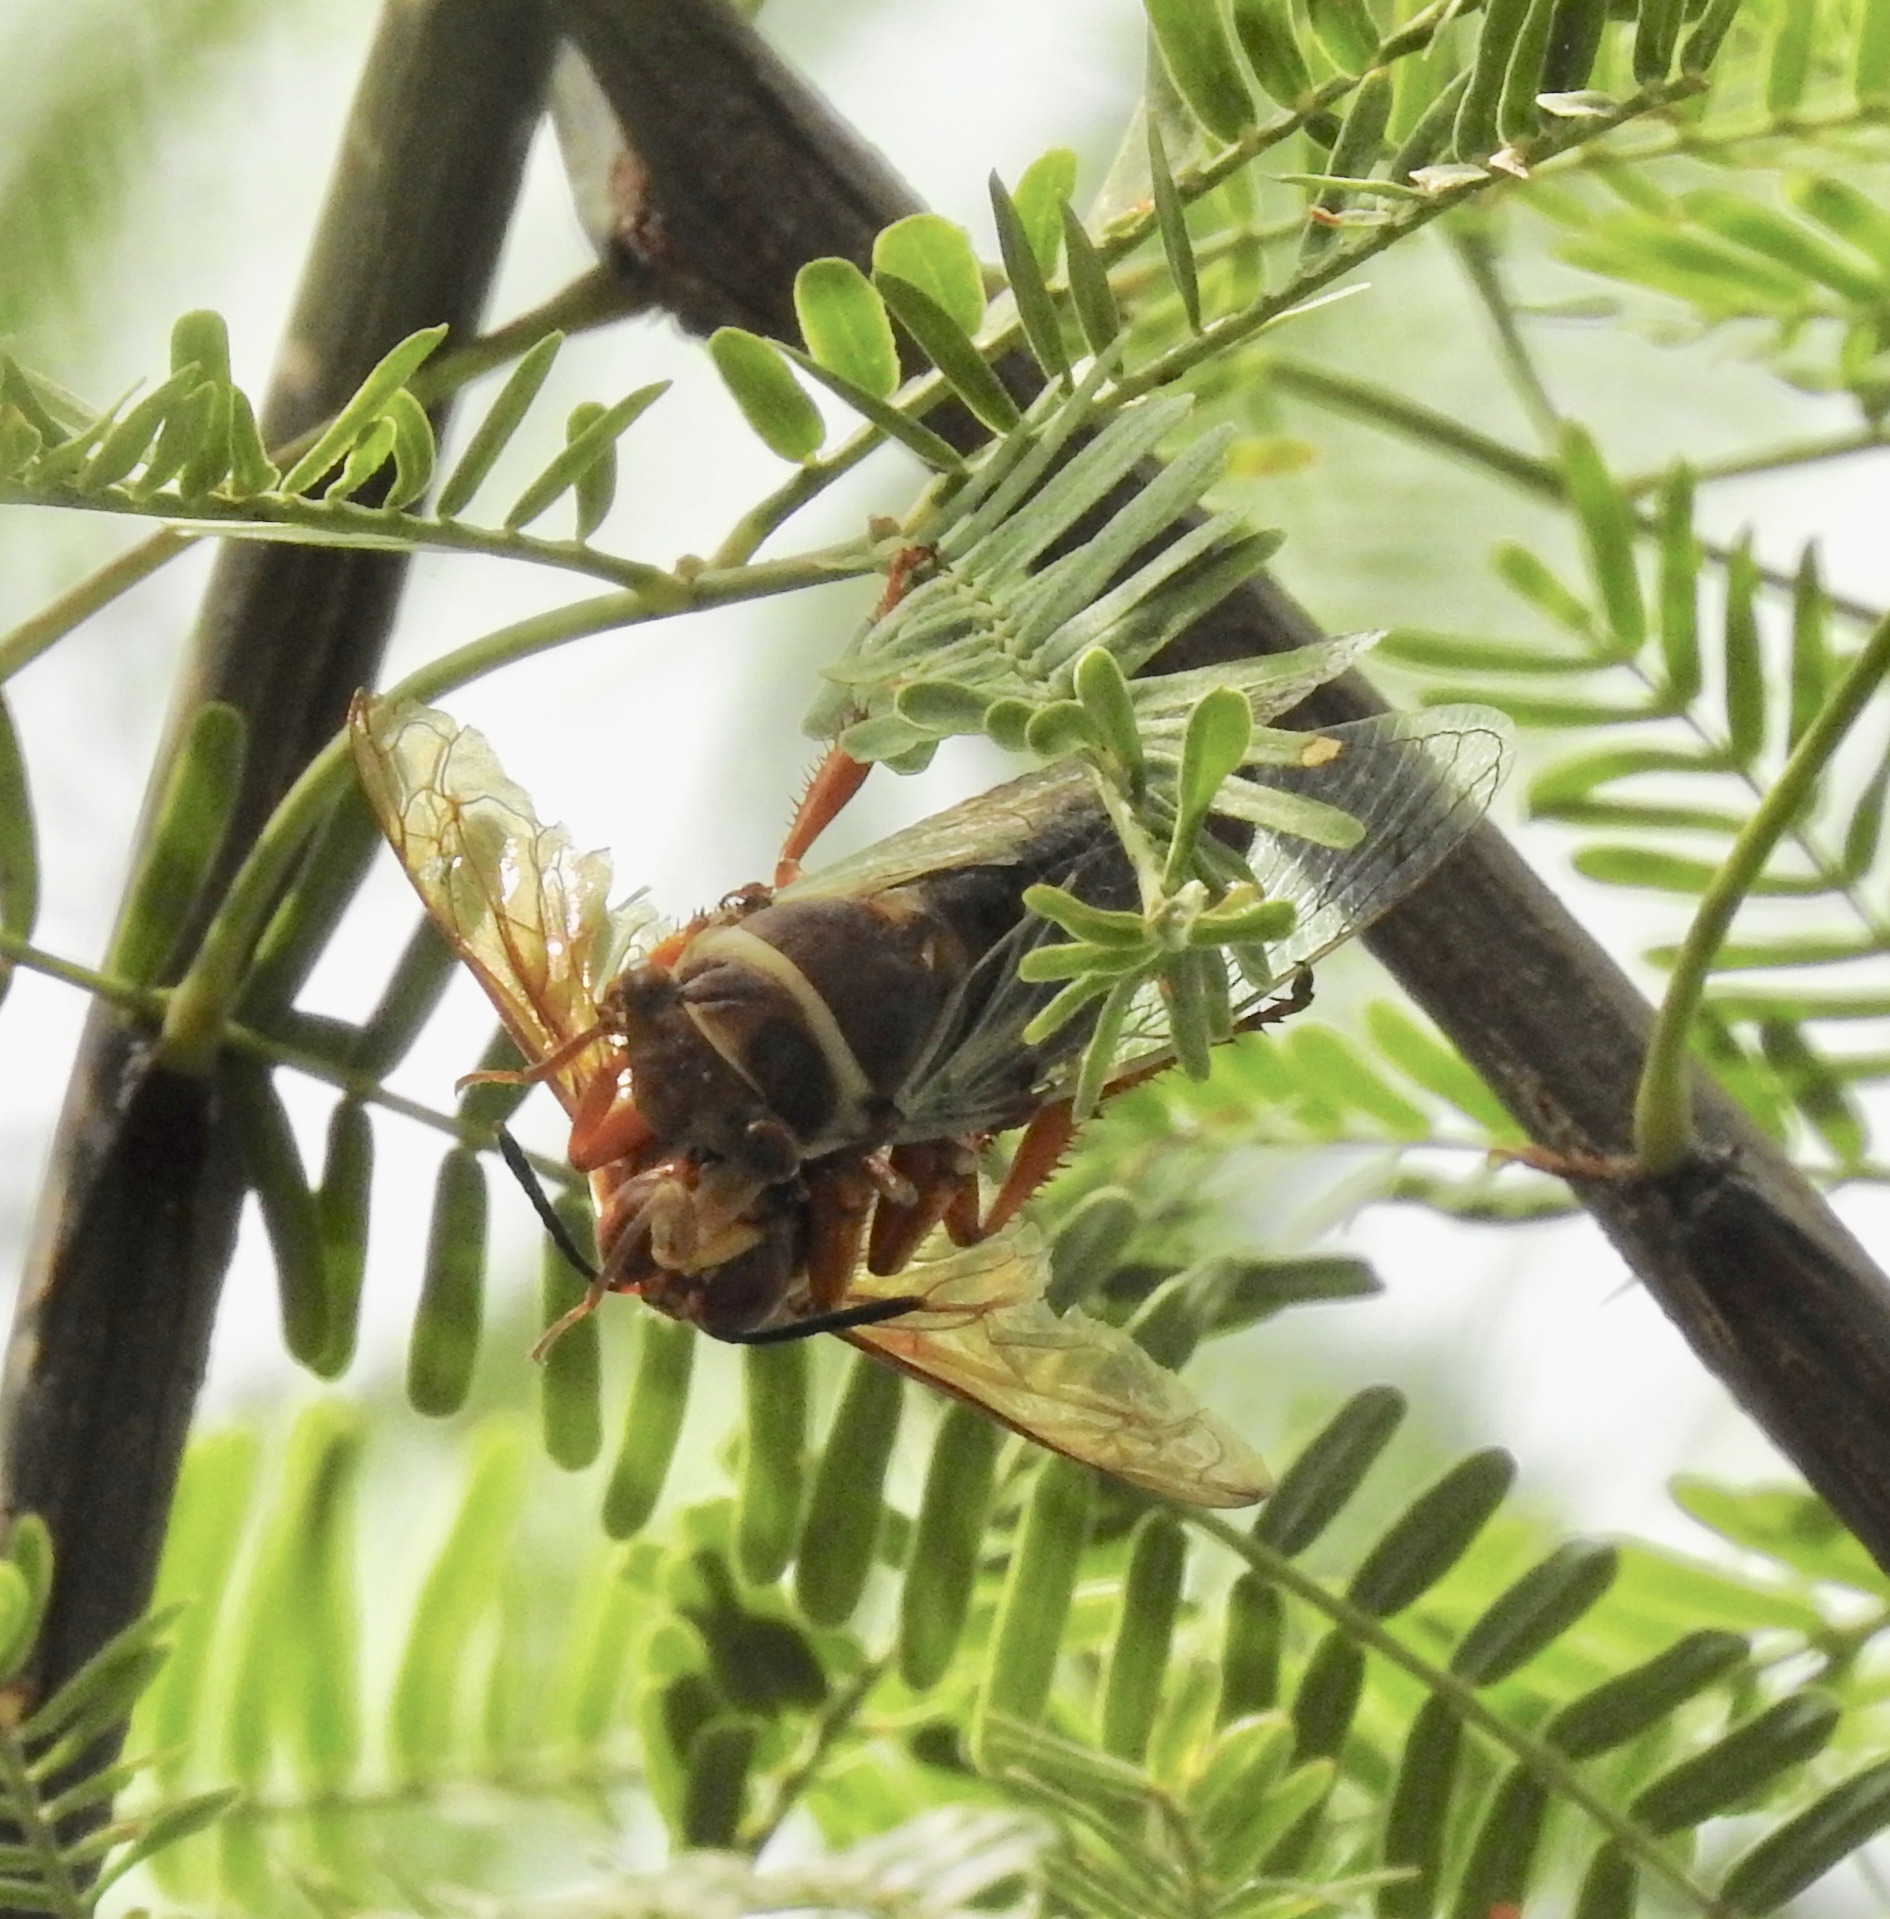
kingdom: Animalia
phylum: Arthropoda
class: Insecta
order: Hymenoptera
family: Crabronidae
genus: Sphecius
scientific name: Sphecius grandis
